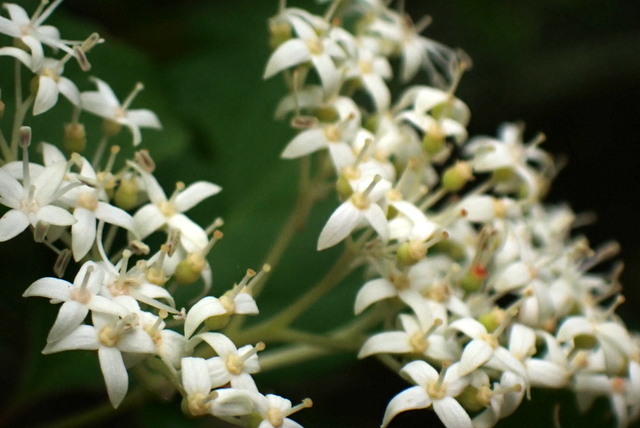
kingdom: Plantae
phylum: Tracheophyta
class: Magnoliopsida
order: Cornales
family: Cornaceae
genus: Cornus
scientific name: Cornus foemina
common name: Swamp dogwood
